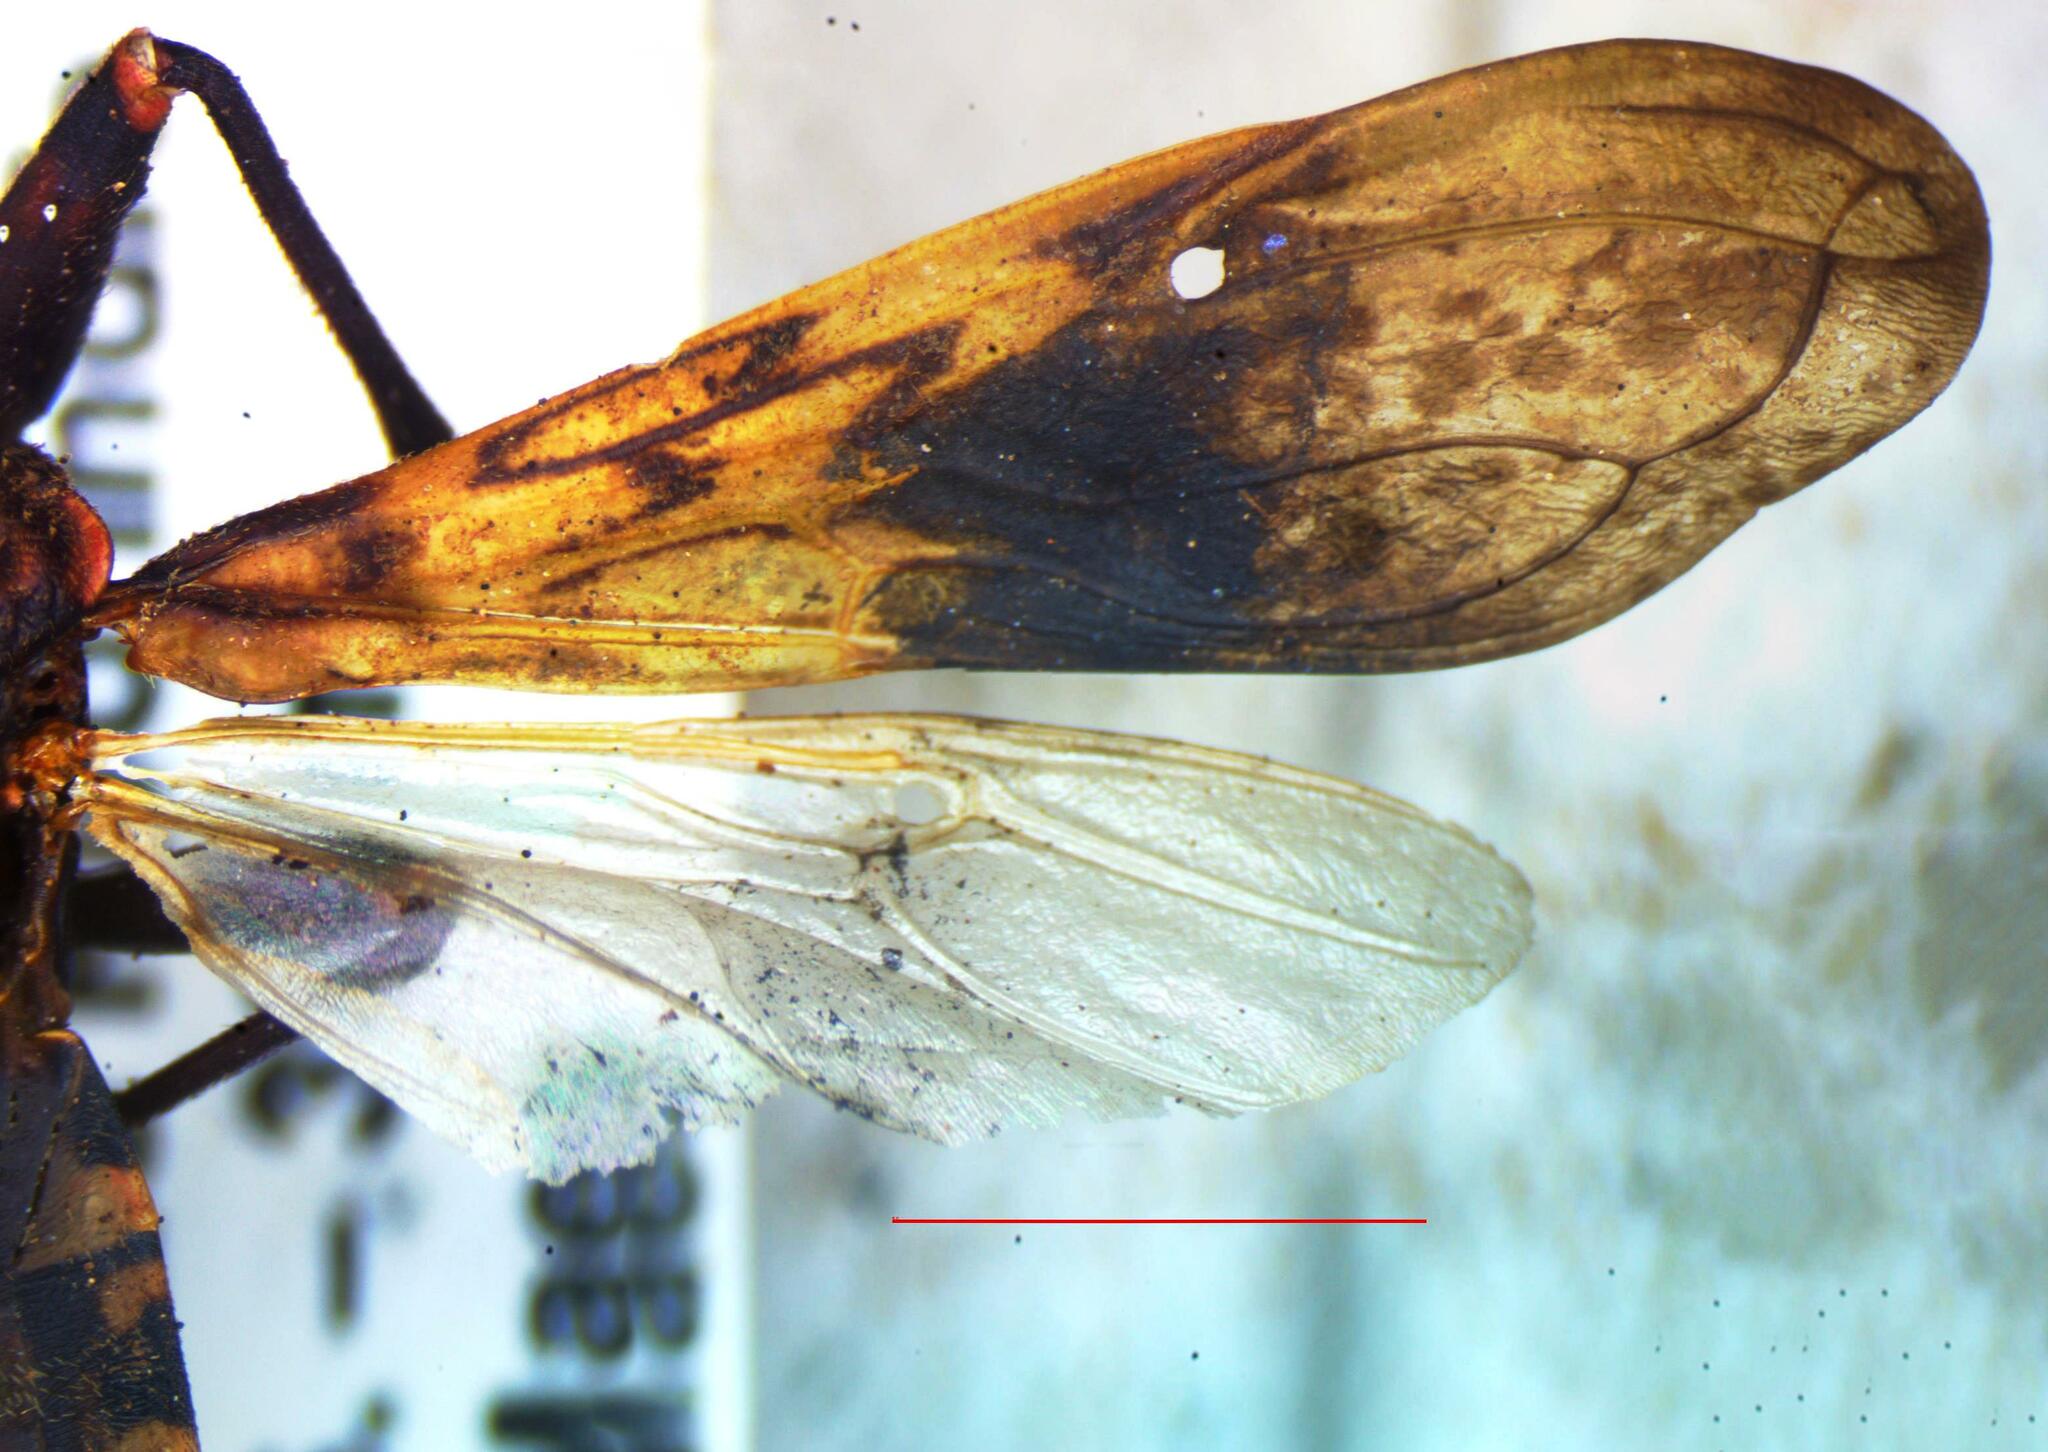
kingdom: Animalia
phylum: Arthropoda
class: Insecta
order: Hemiptera
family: Reduviidae
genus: Panstrongylus
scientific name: Panstrongylus rufotuberculatus
